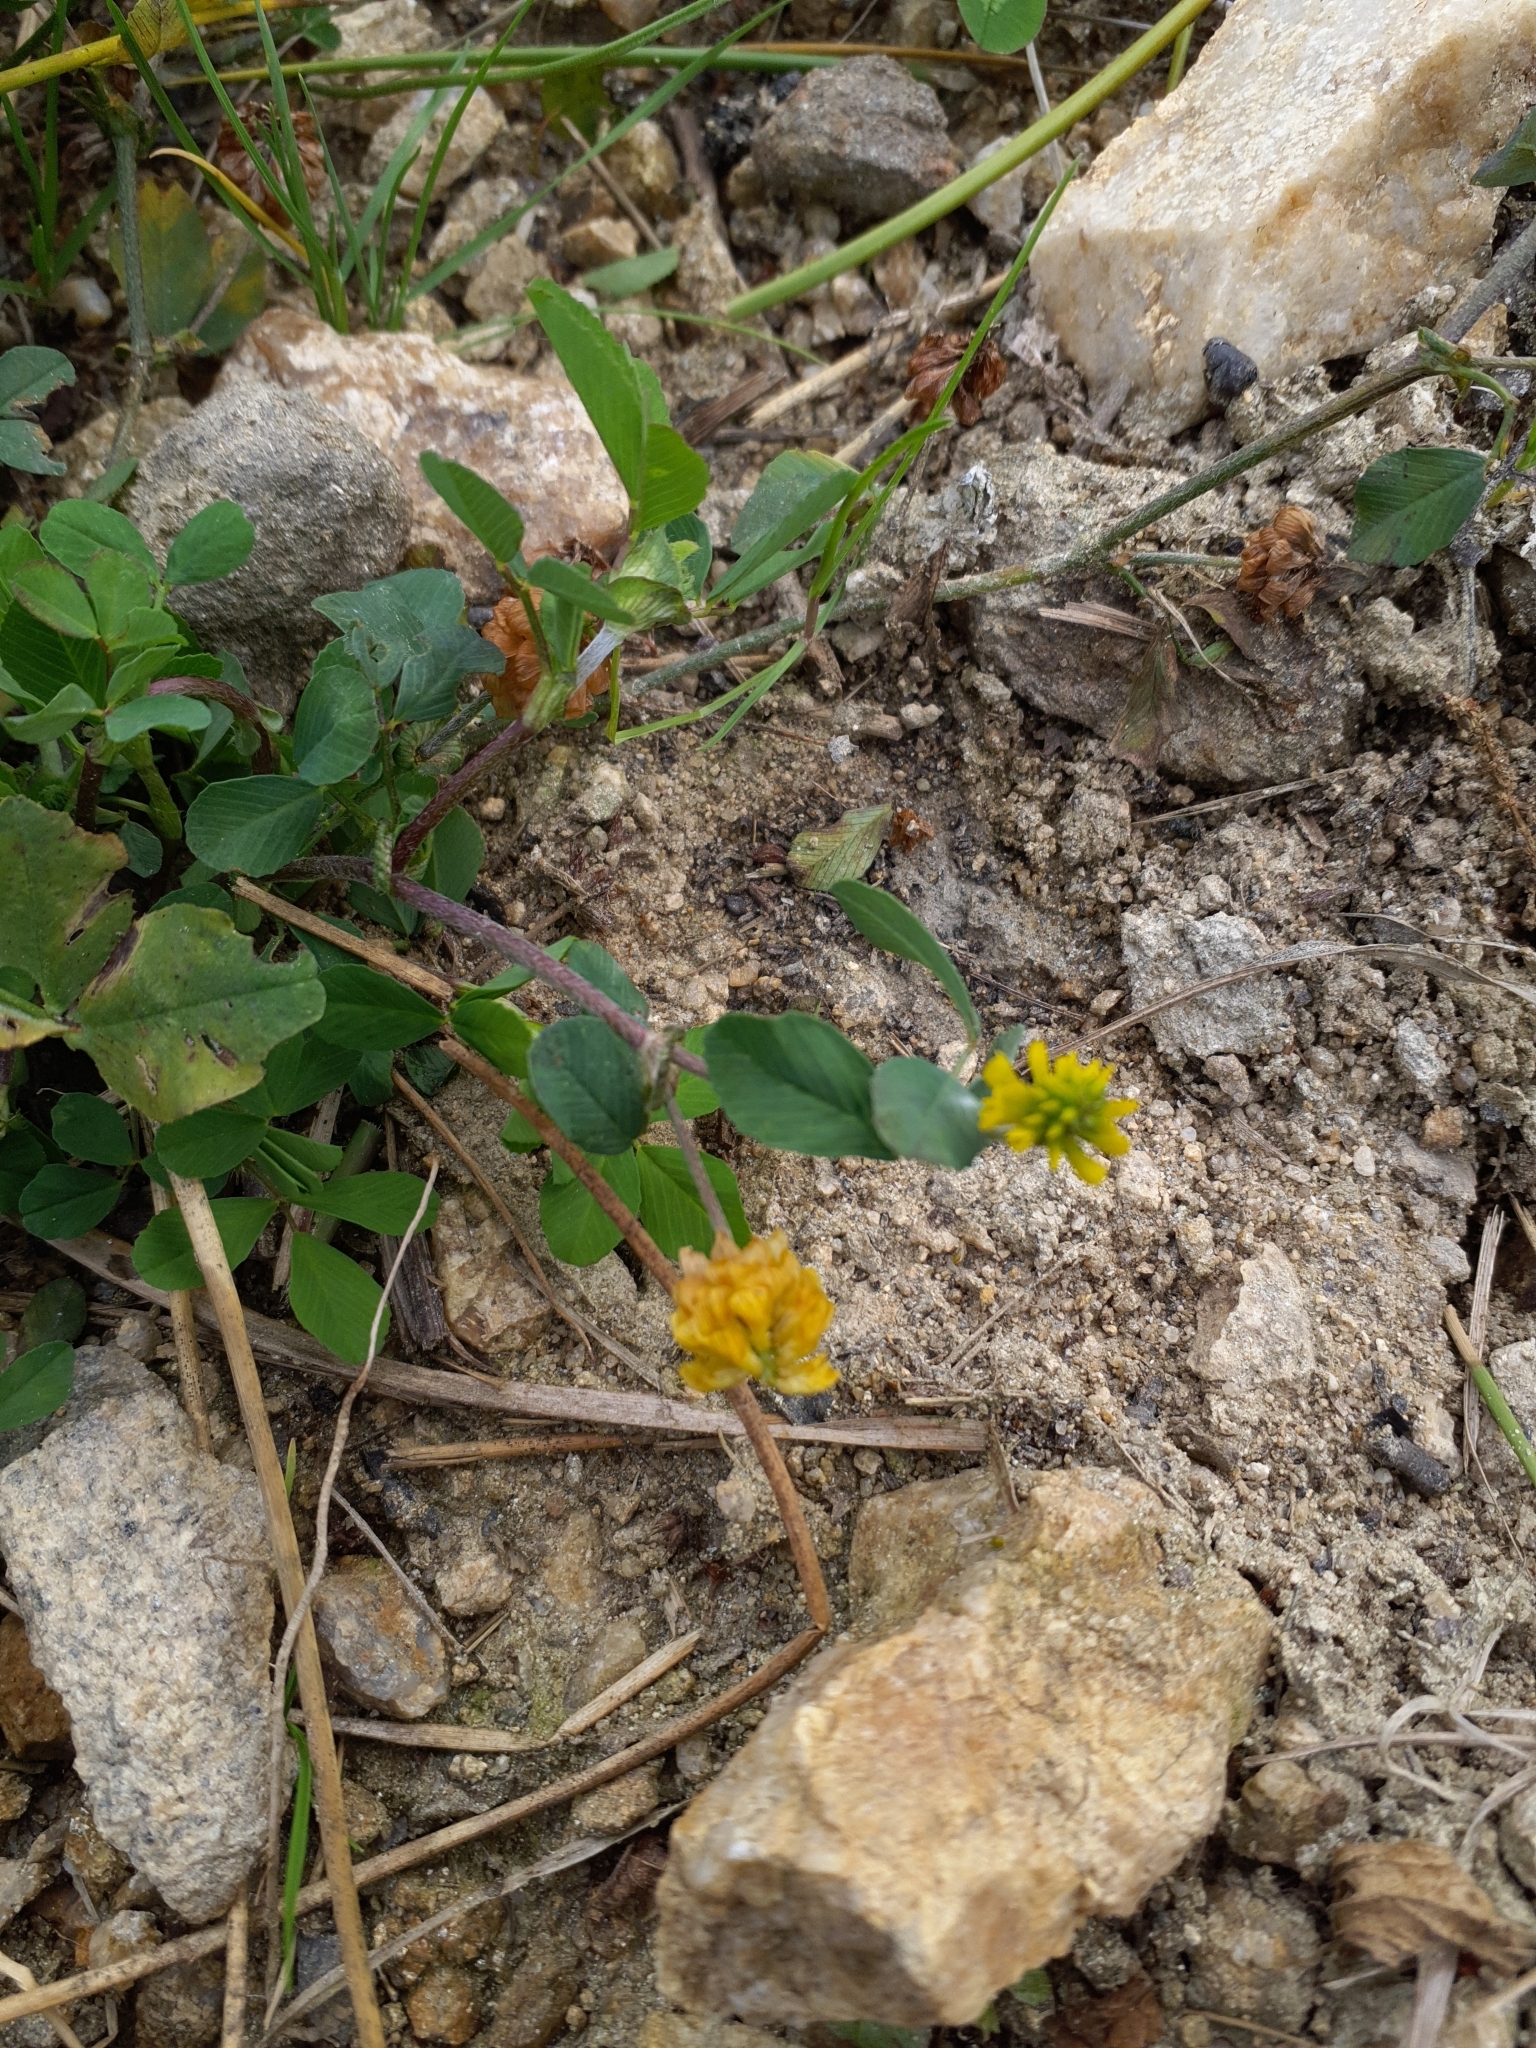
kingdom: Plantae
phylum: Tracheophyta
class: Magnoliopsida
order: Fabales
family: Fabaceae
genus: Trifolium
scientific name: Trifolium campestre
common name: Field clover
